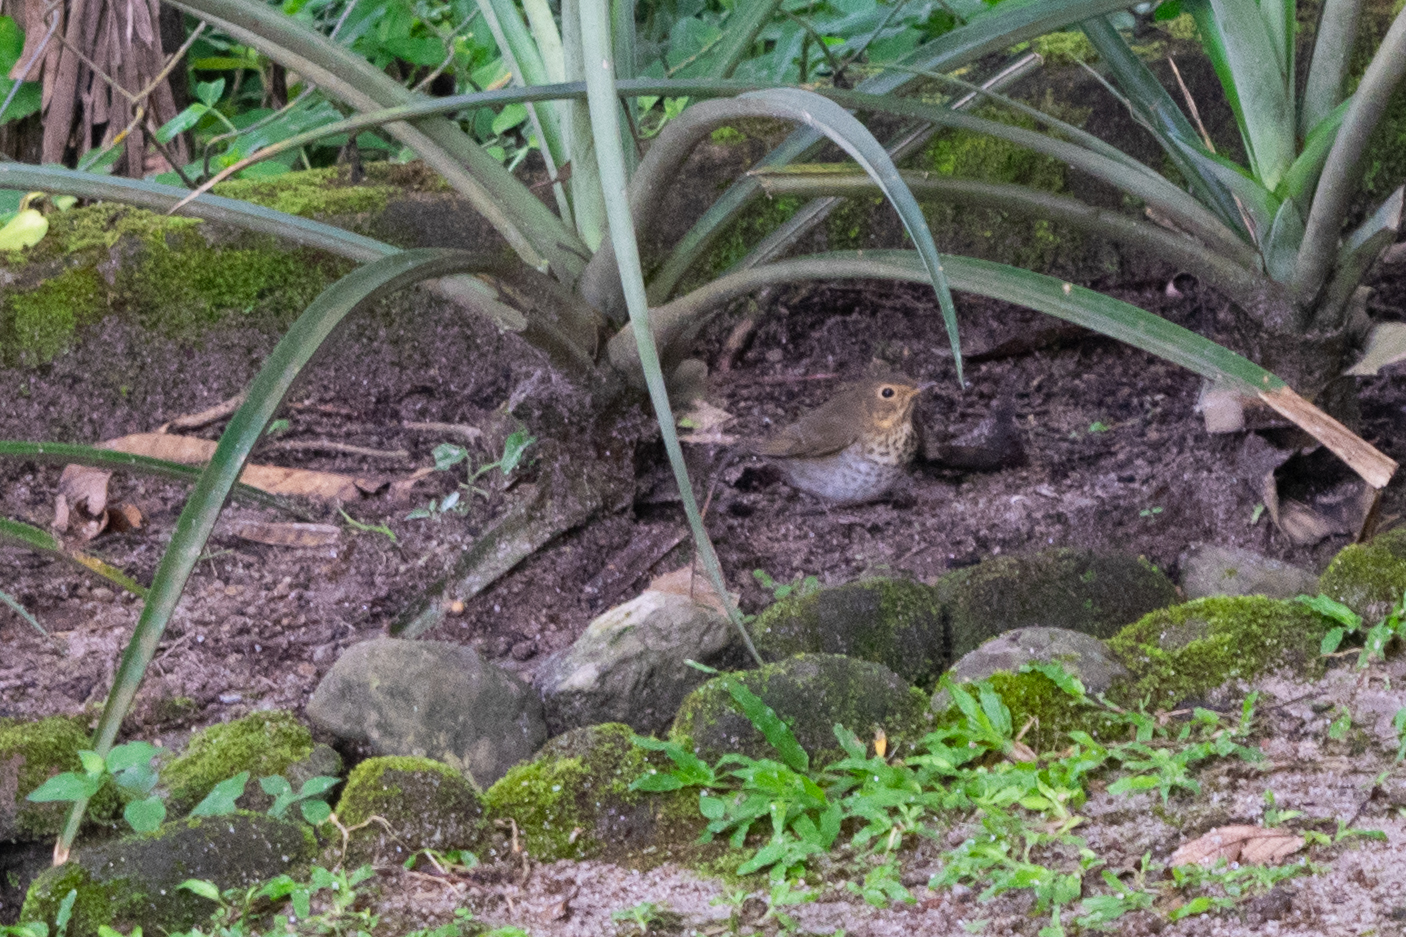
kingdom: Animalia
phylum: Chordata
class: Aves
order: Passeriformes
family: Turdidae
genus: Catharus
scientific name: Catharus ustulatus
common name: Swainson's thrush
